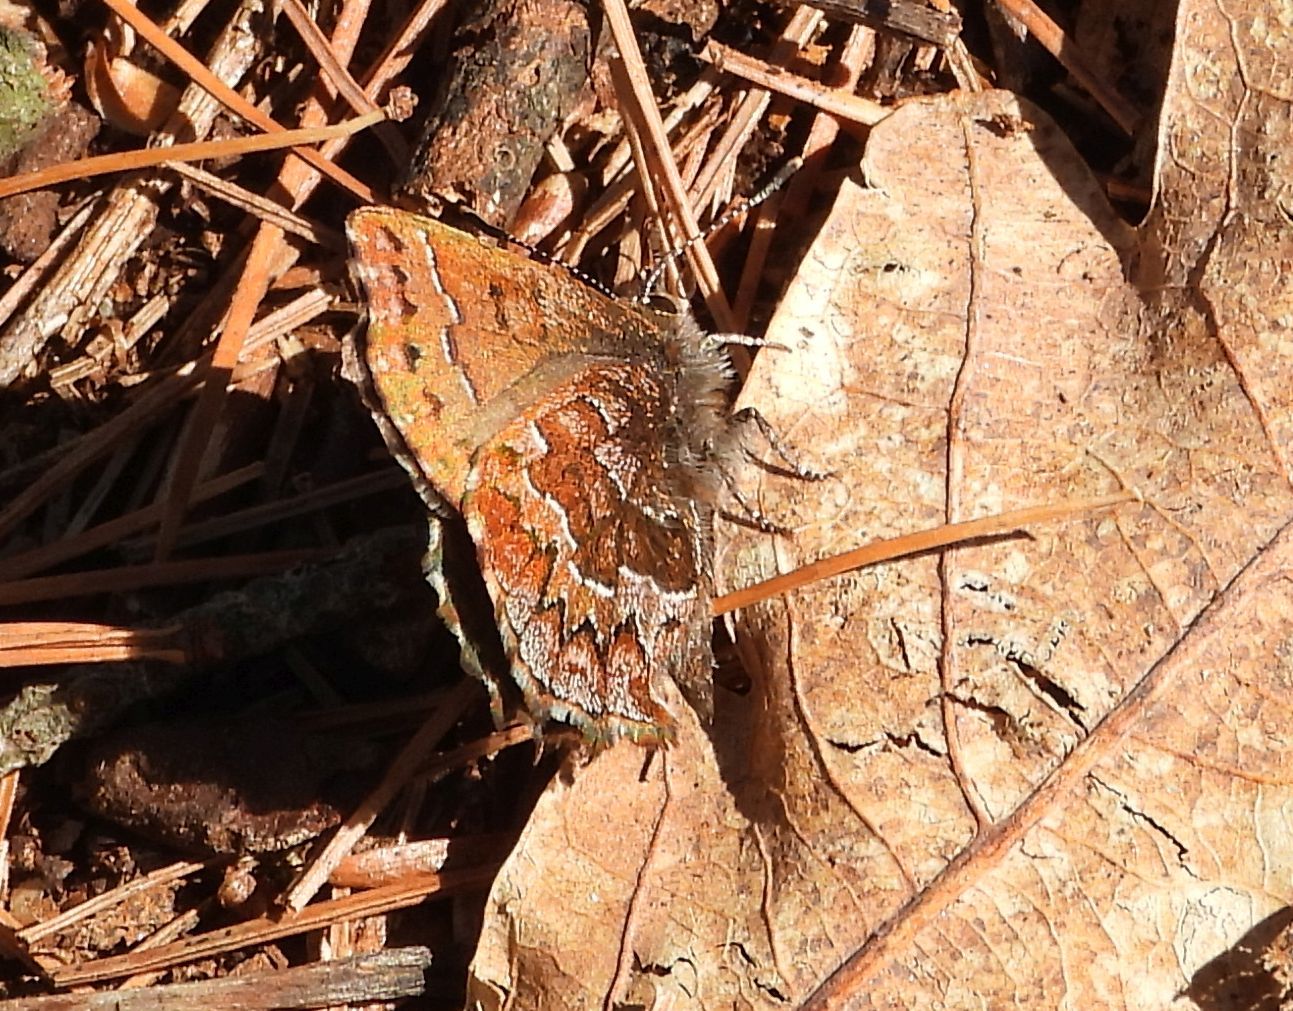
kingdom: Animalia
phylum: Arthropoda
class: Insecta
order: Lepidoptera
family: Lycaenidae
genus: Incisalia
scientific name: Incisalia niphon
